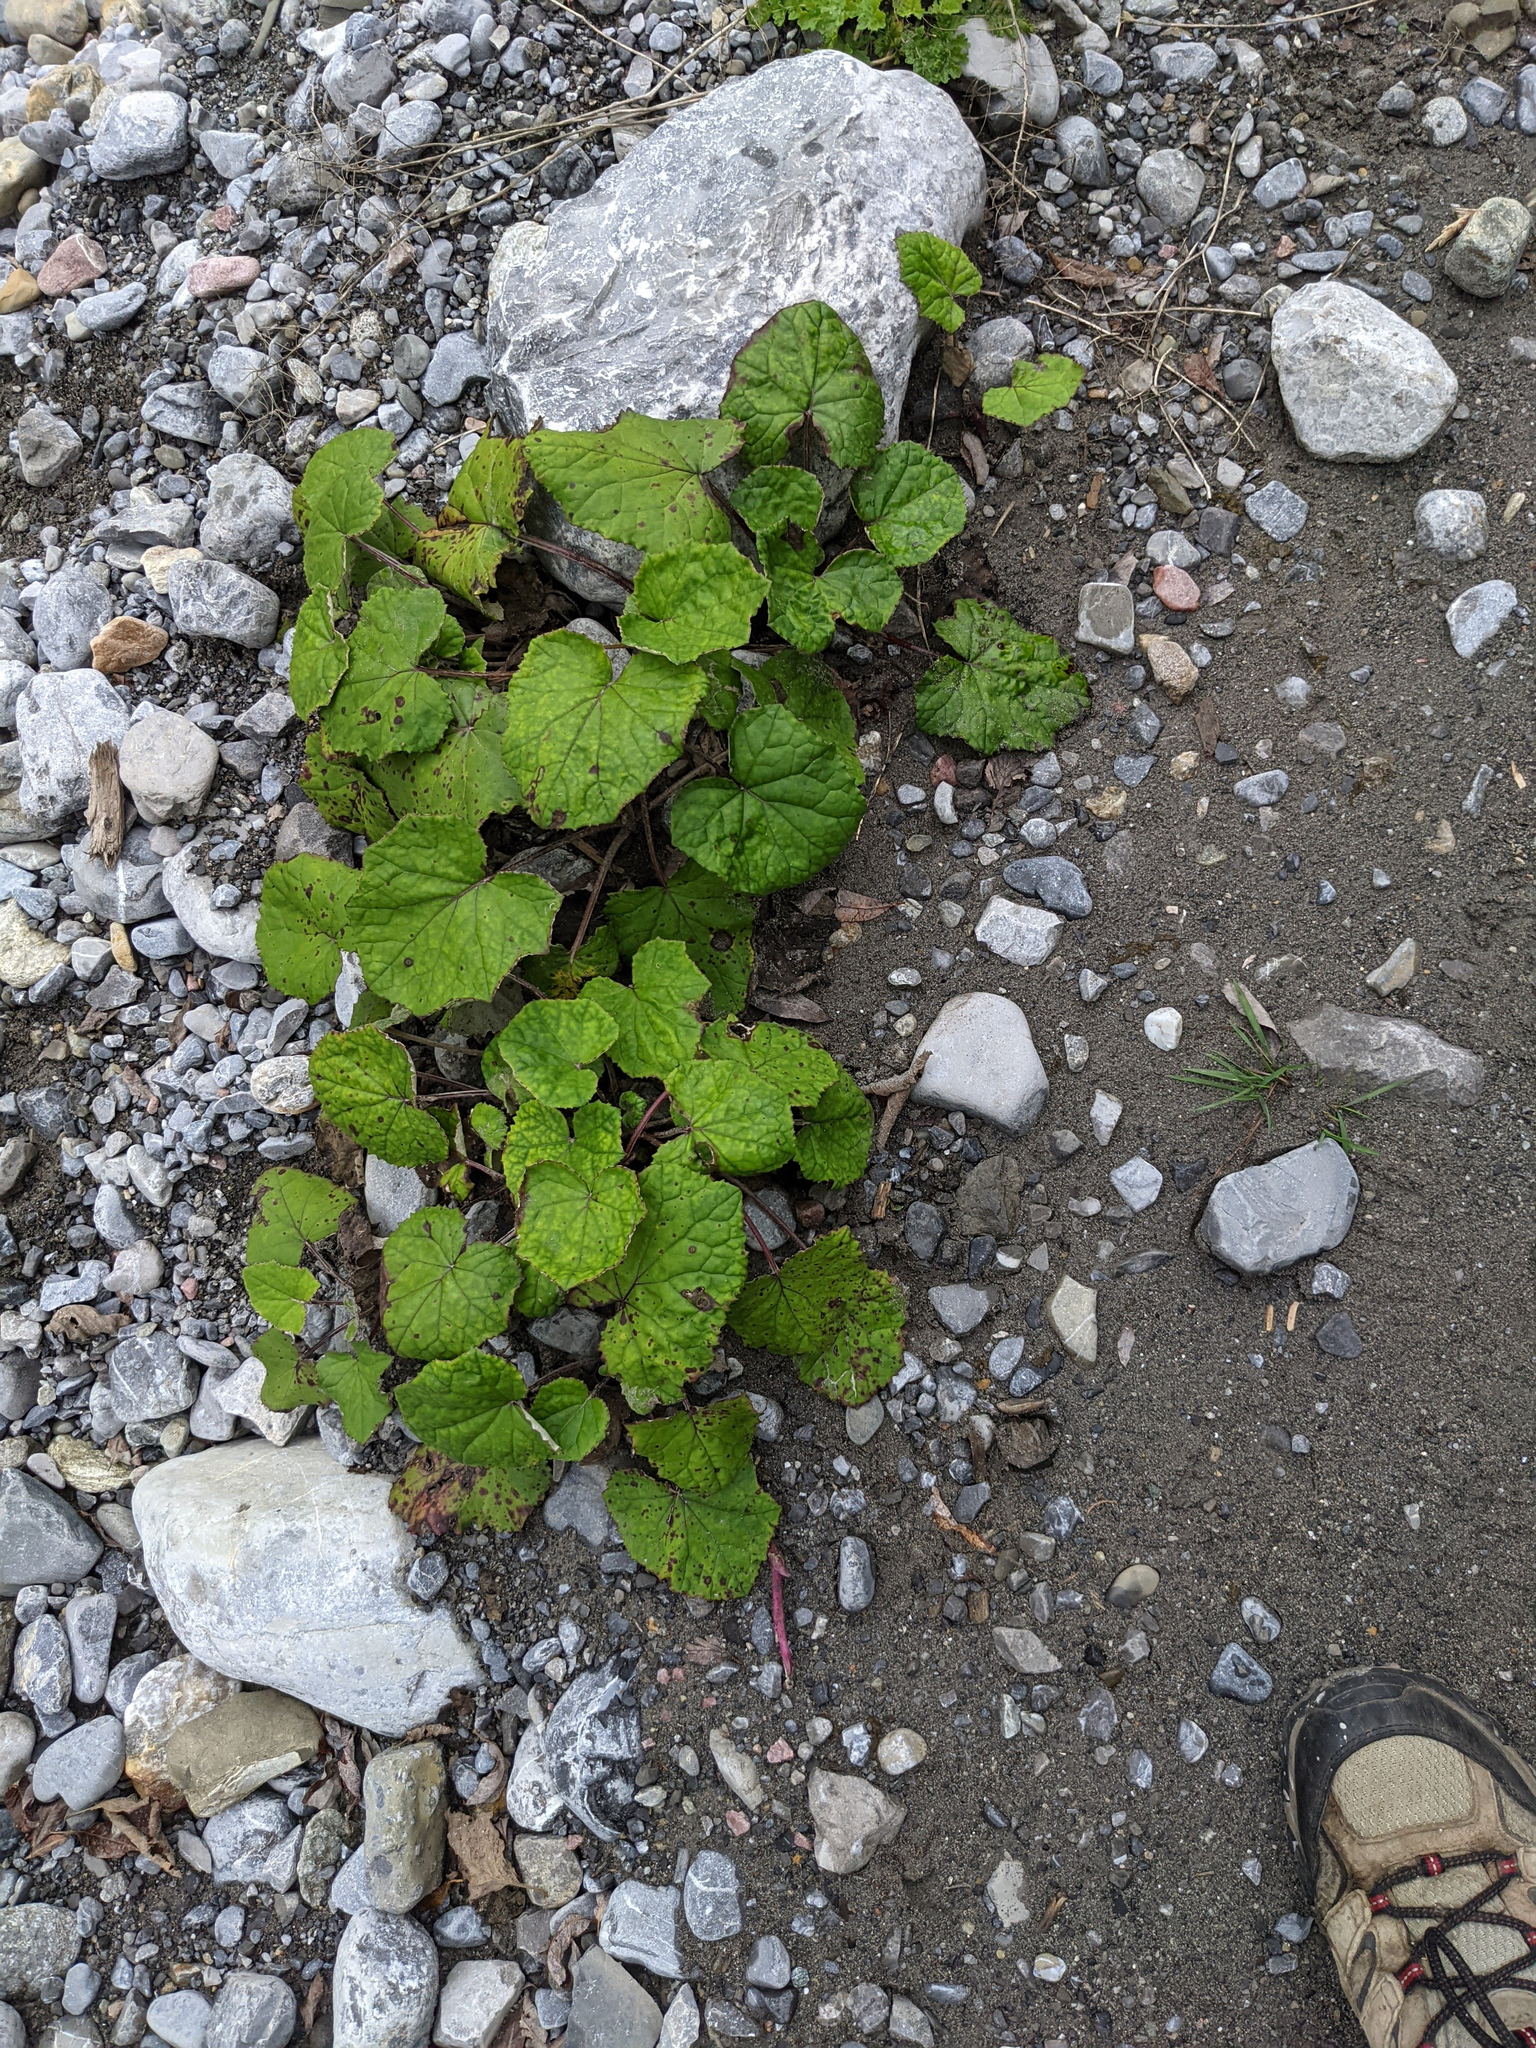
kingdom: Plantae
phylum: Tracheophyta
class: Magnoliopsida
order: Asterales
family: Asteraceae
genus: Tussilago
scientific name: Tussilago farfara
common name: Coltsfoot
